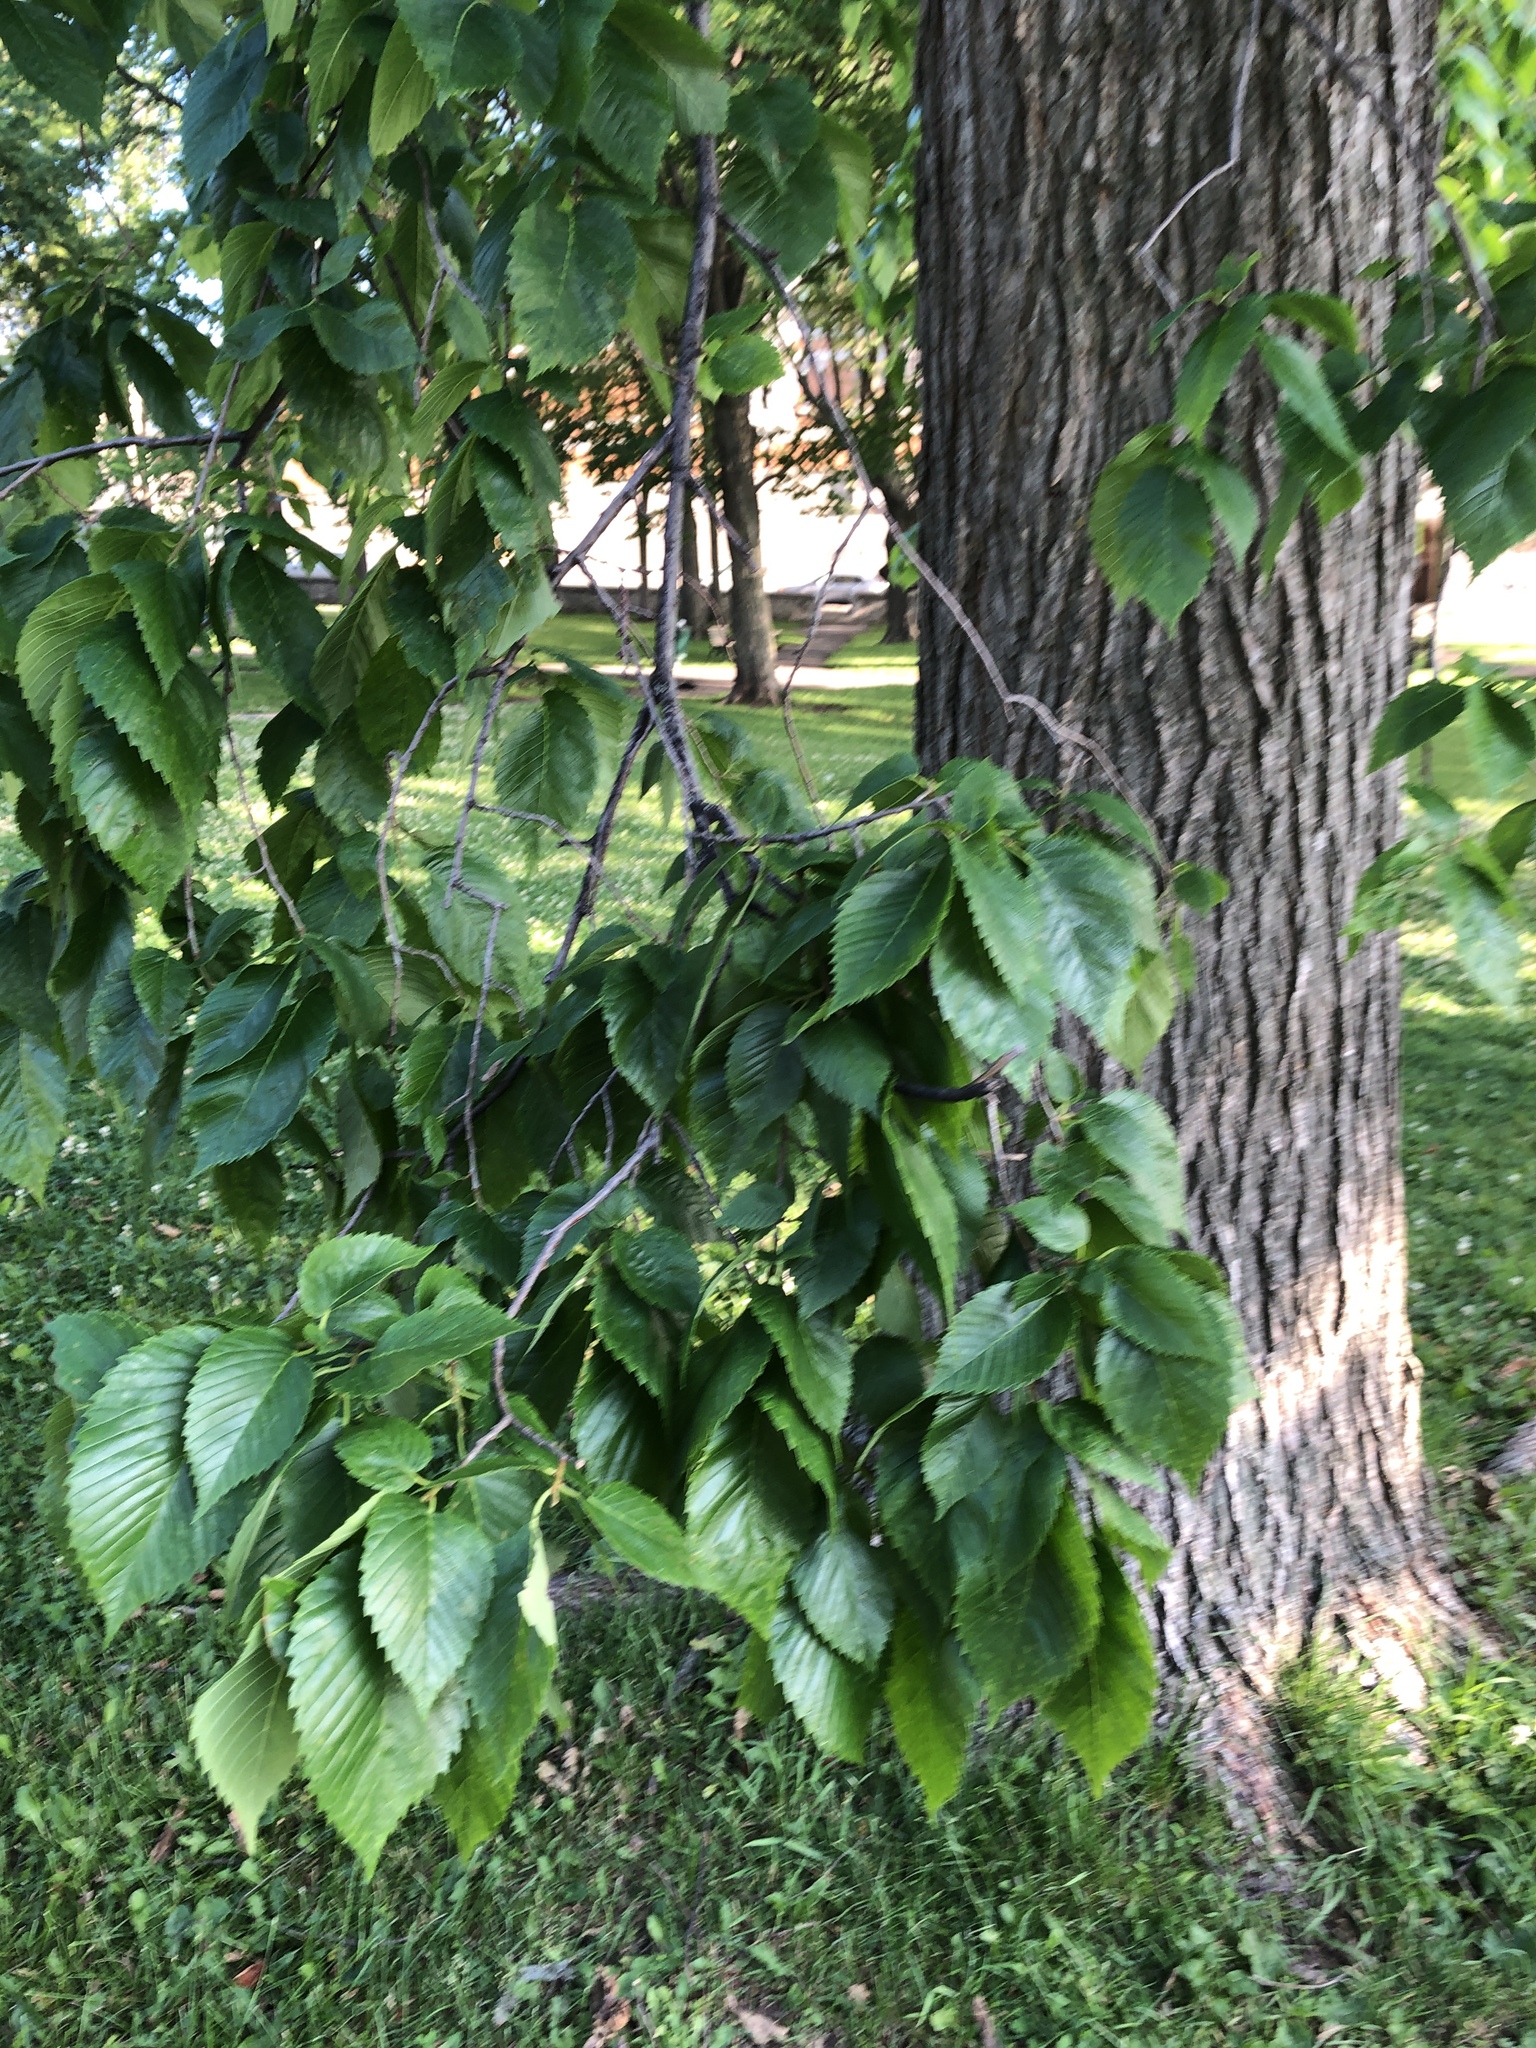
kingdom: Plantae
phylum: Tracheophyta
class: Magnoliopsida
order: Rosales
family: Ulmaceae
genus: Ulmus
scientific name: Ulmus americana
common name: American elm
